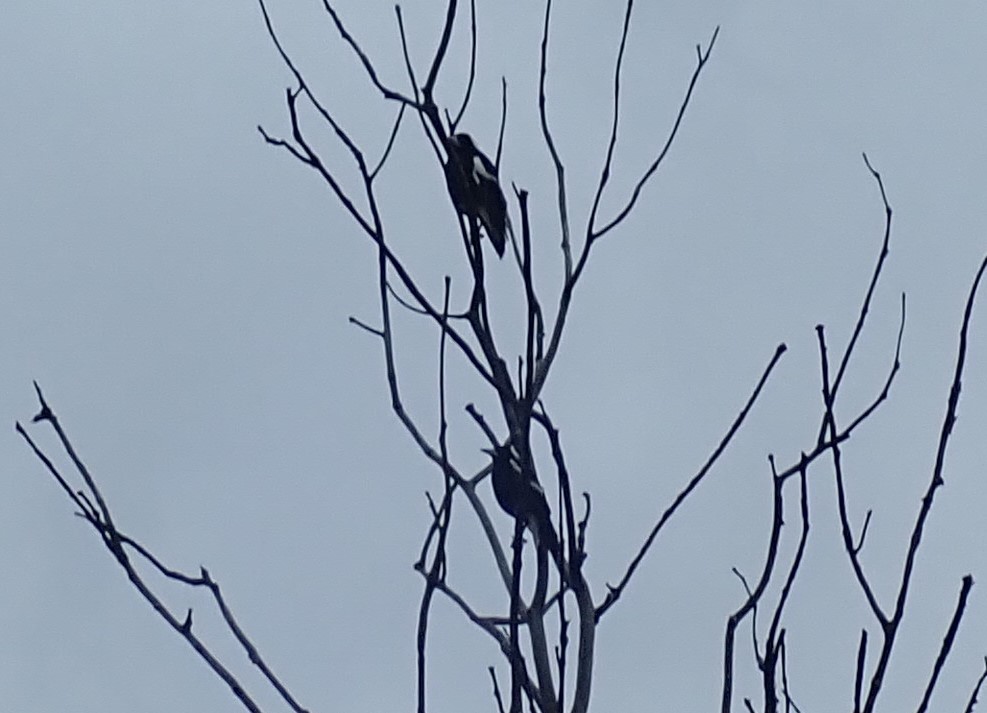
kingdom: Animalia
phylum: Chordata
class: Aves
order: Passeriformes
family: Cracticidae
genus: Gymnorhina
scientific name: Gymnorhina tibicen
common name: Australian magpie
